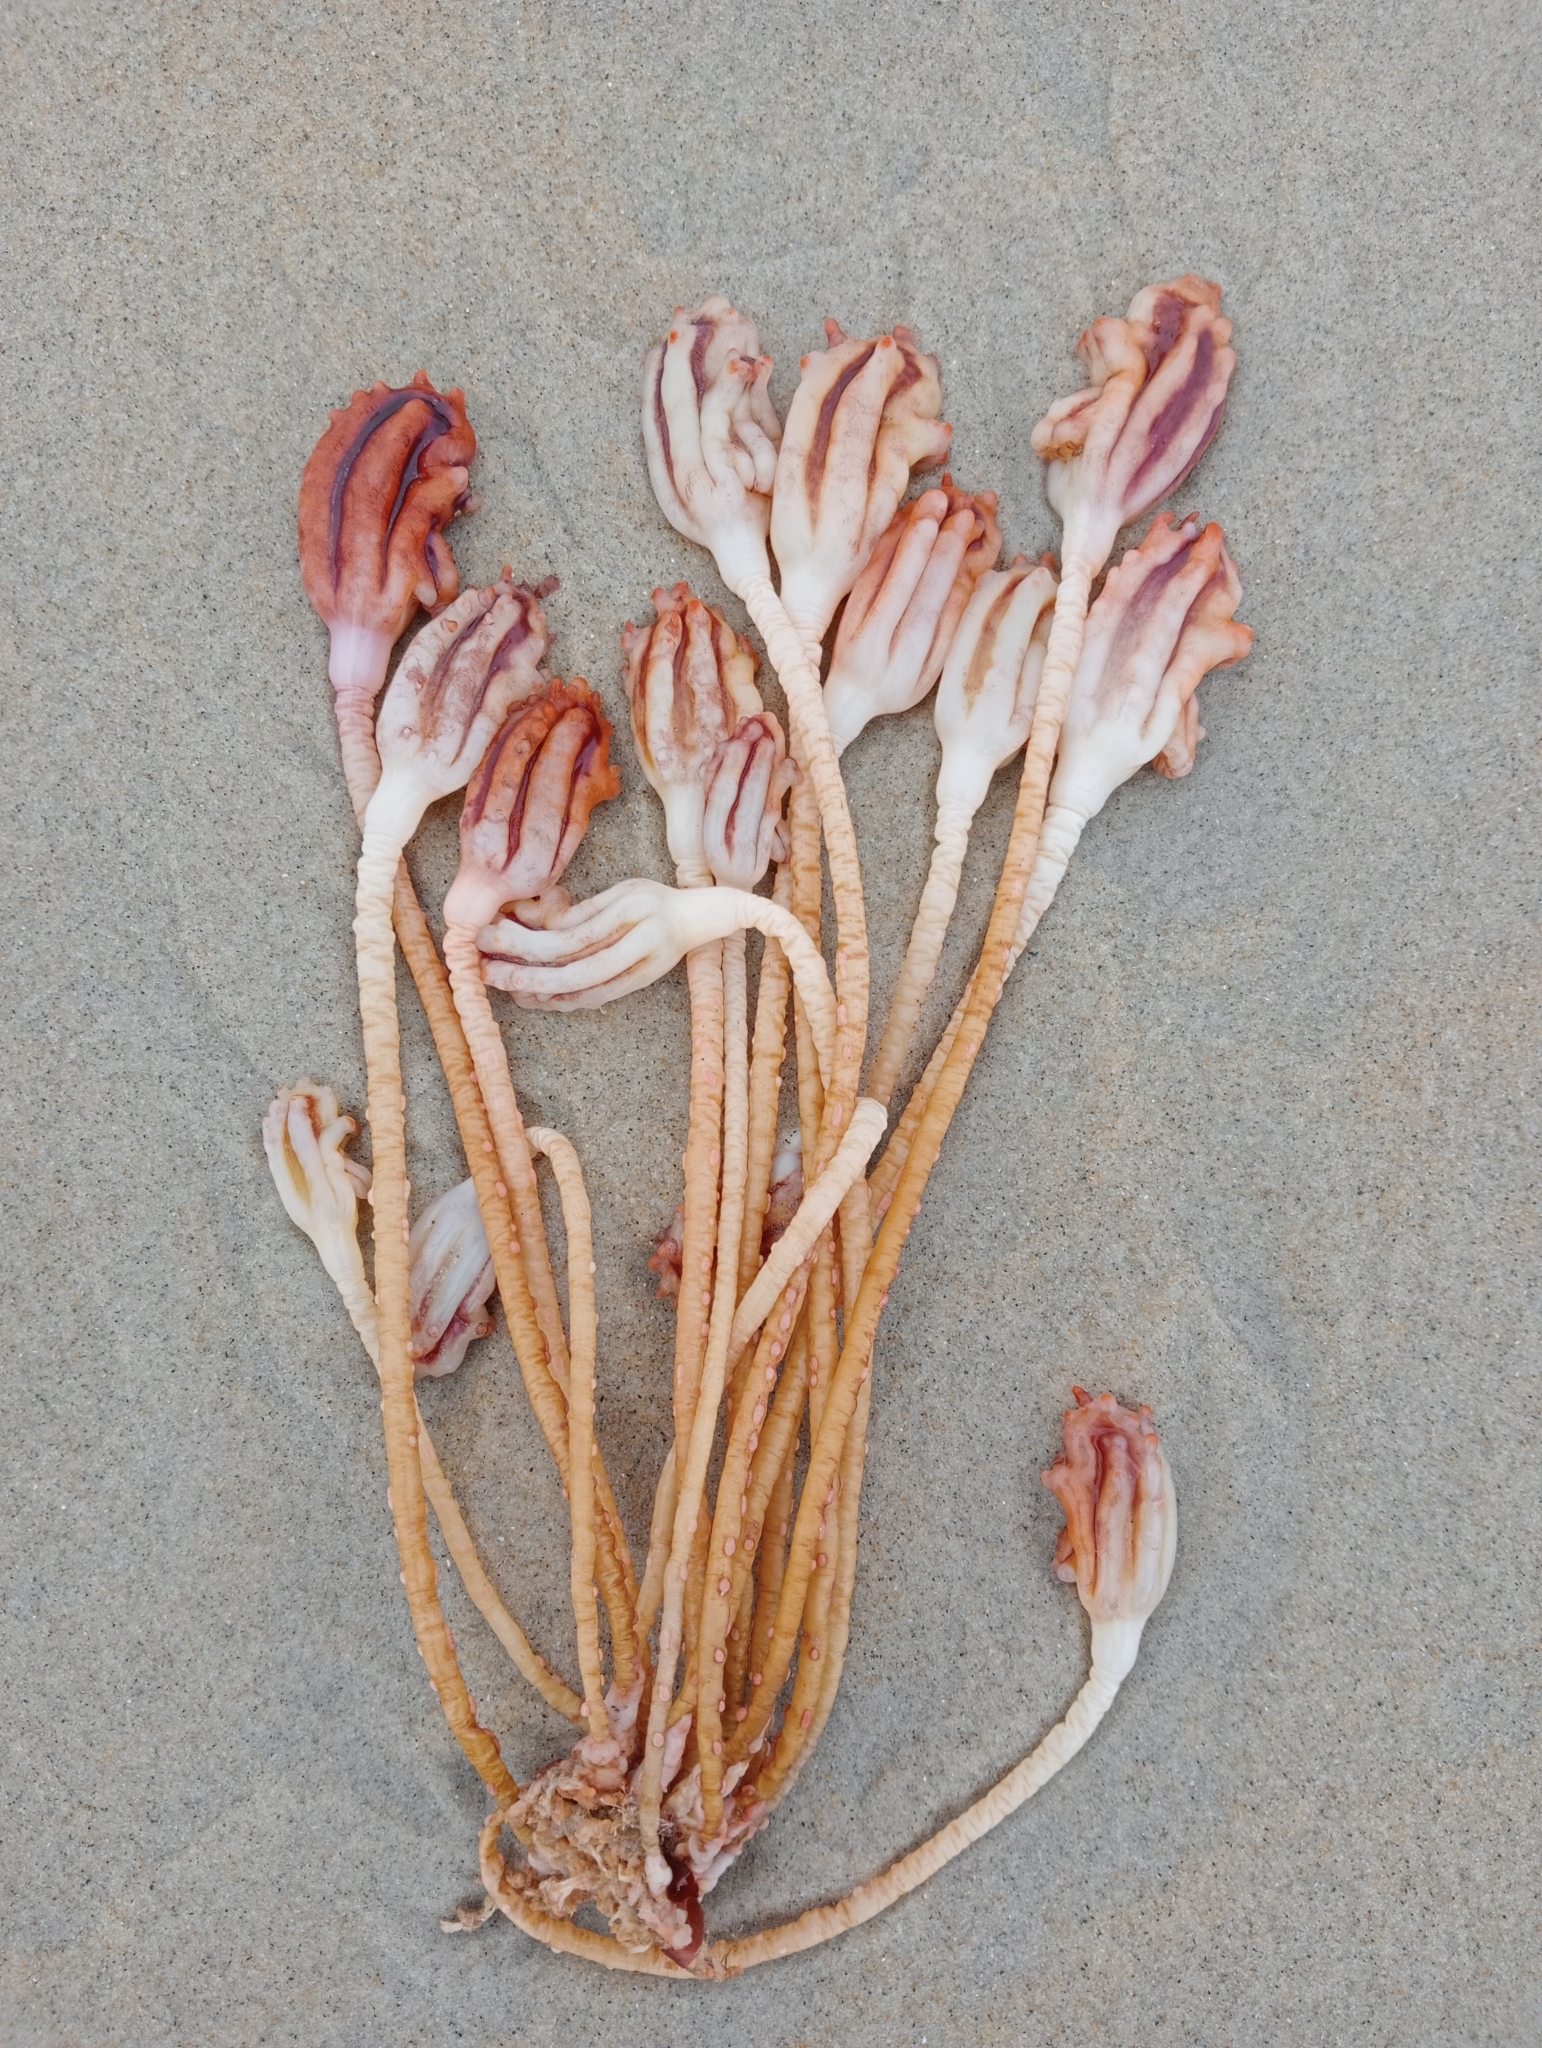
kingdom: Animalia
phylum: Chordata
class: Ascidiacea
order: Stolidobranchia
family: Pyuridae
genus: Pyura
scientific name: Pyura pachydermatina
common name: Sea tulip
